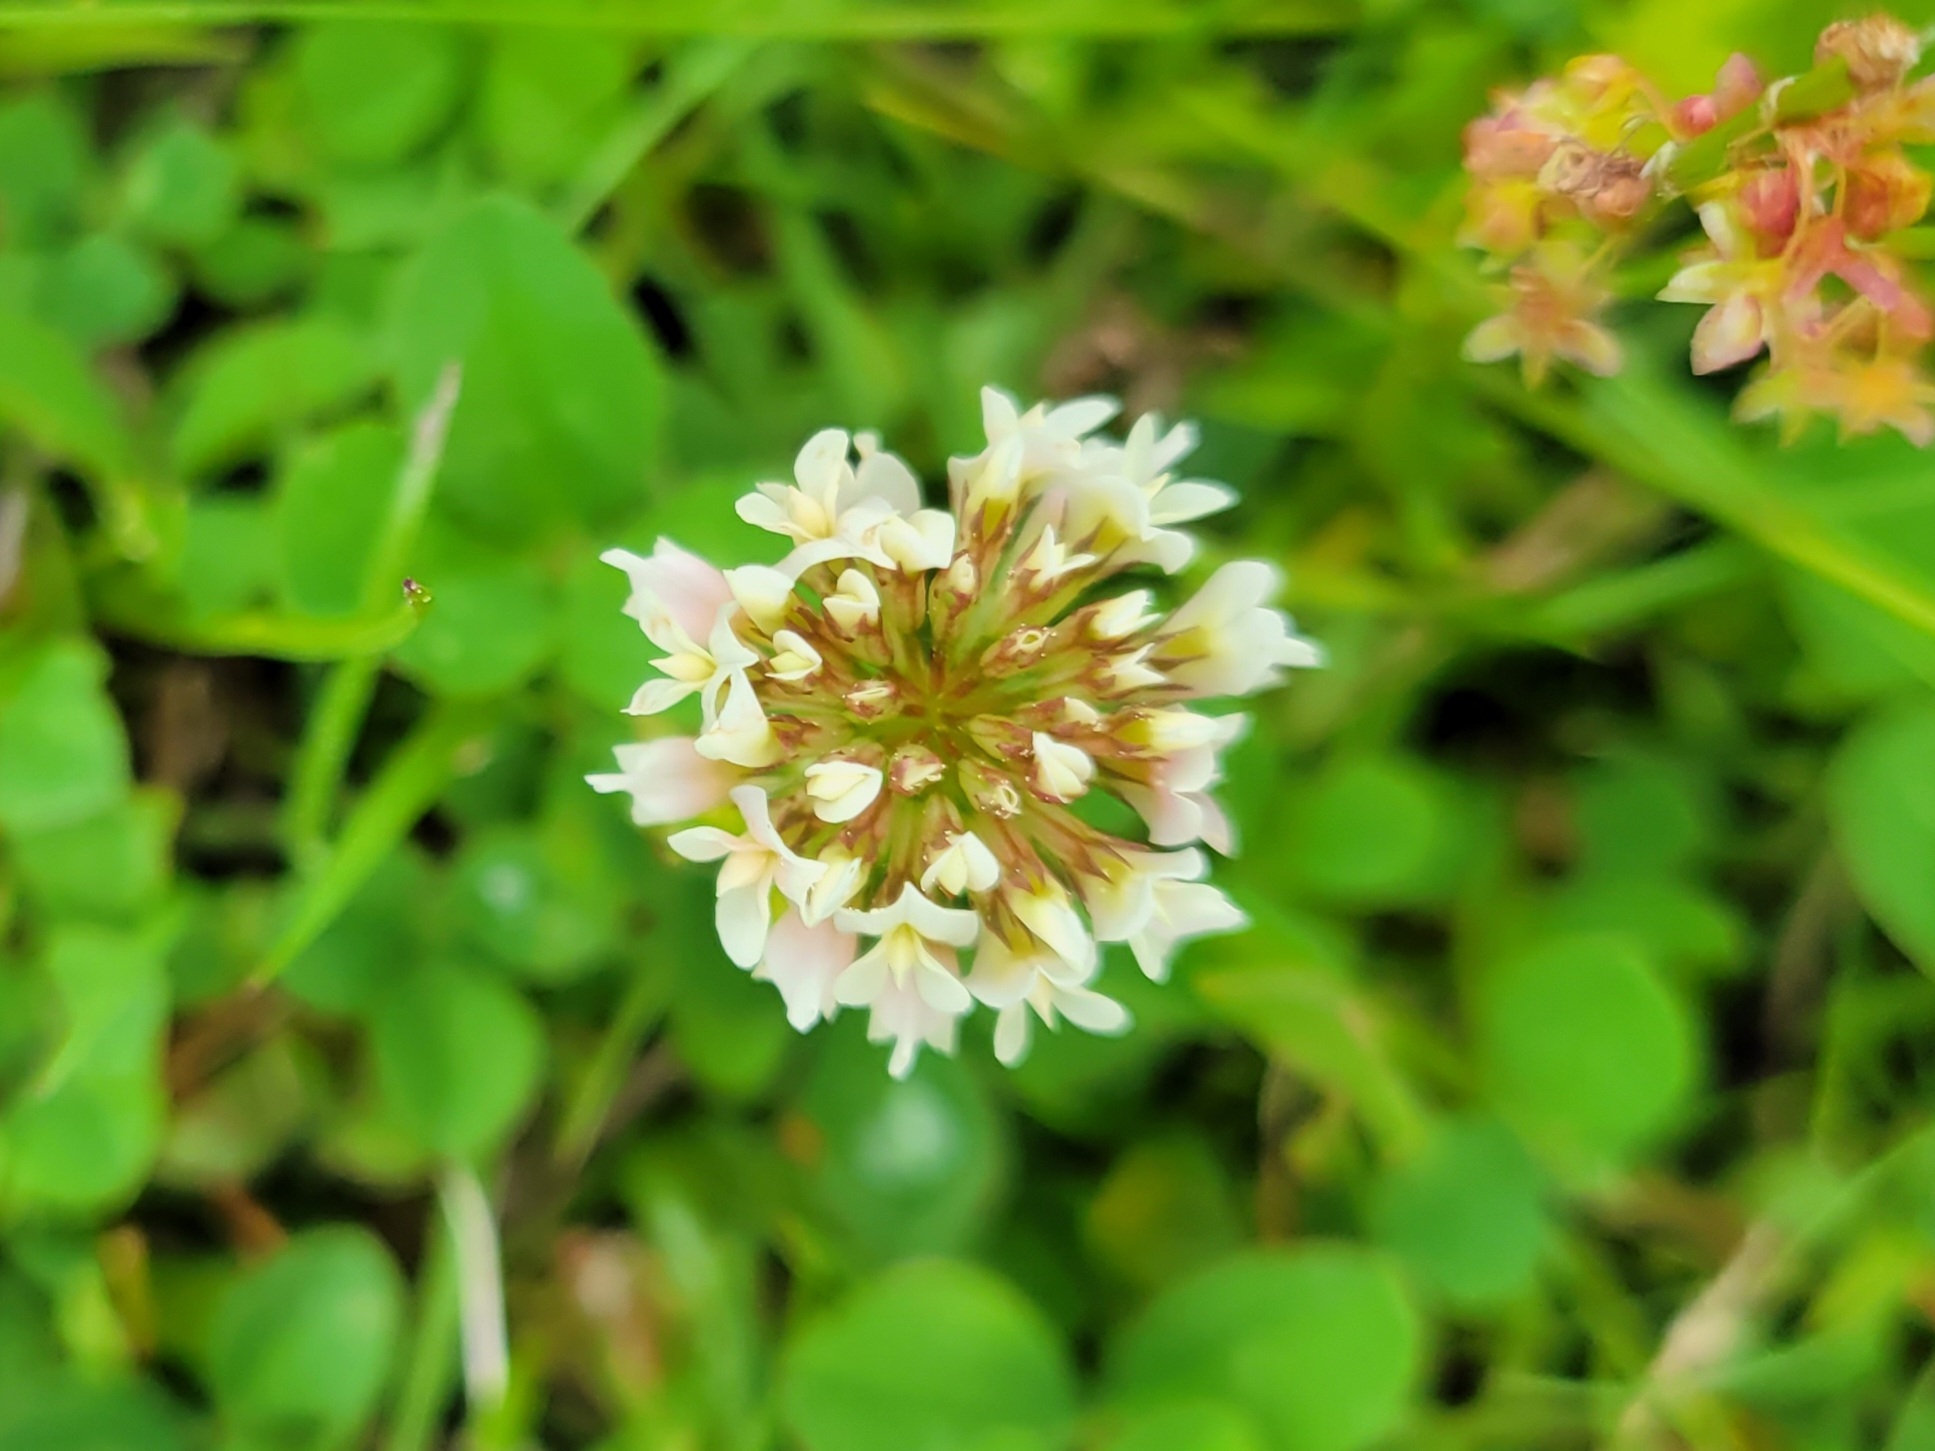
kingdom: Plantae
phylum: Tracheophyta
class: Magnoliopsida
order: Fabales
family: Fabaceae
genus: Trifolium
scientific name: Trifolium repens
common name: White clover
